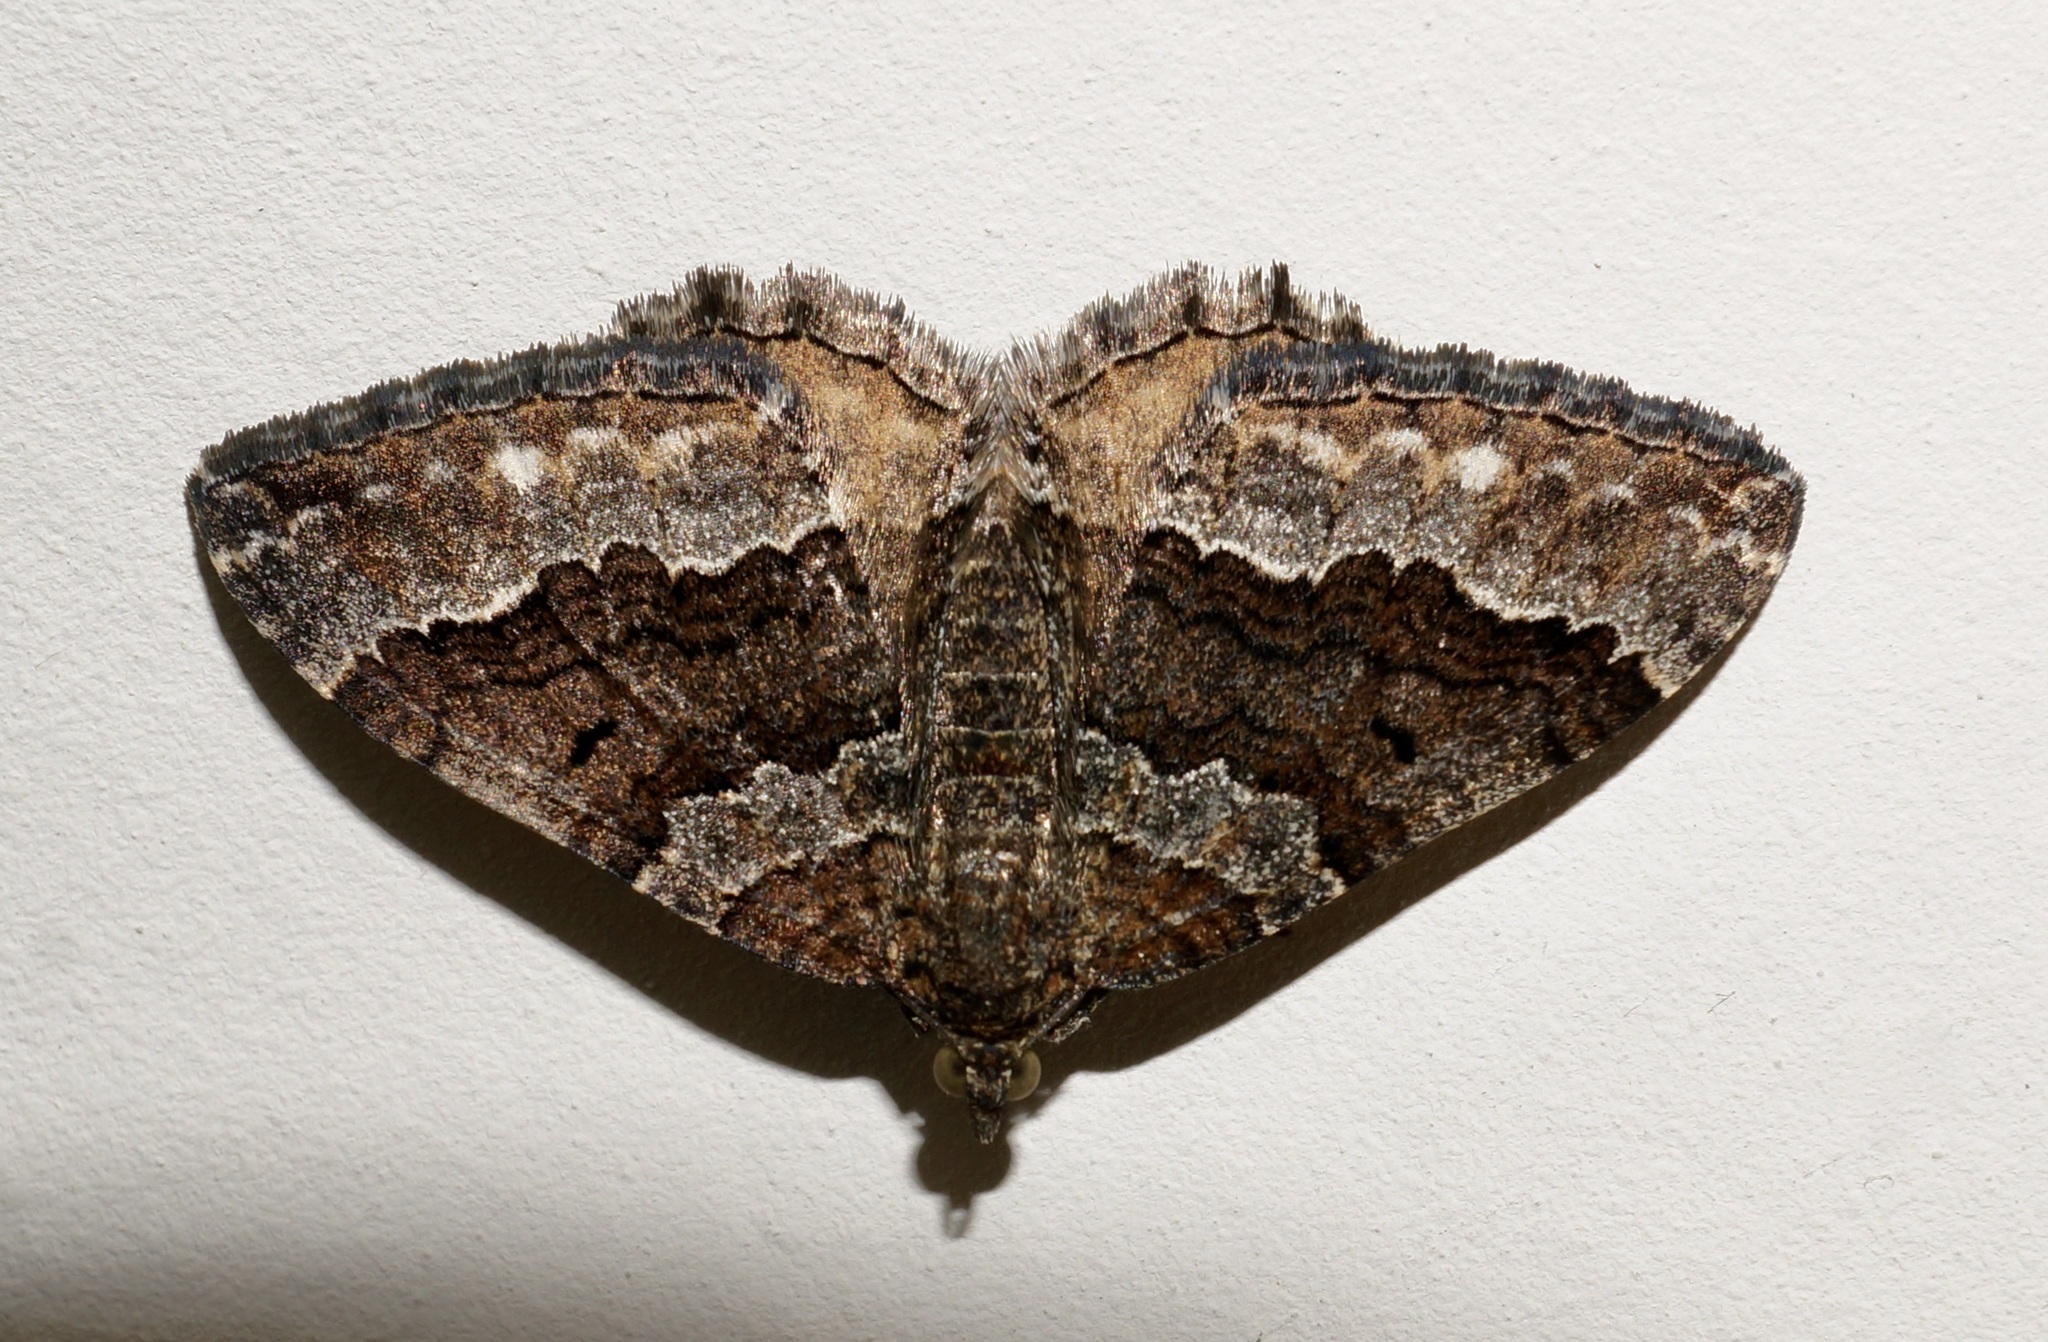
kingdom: Animalia
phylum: Arthropoda
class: Insecta
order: Lepidoptera
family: Geometridae
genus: Hydriomena
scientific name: Hydriomena deltoidata
